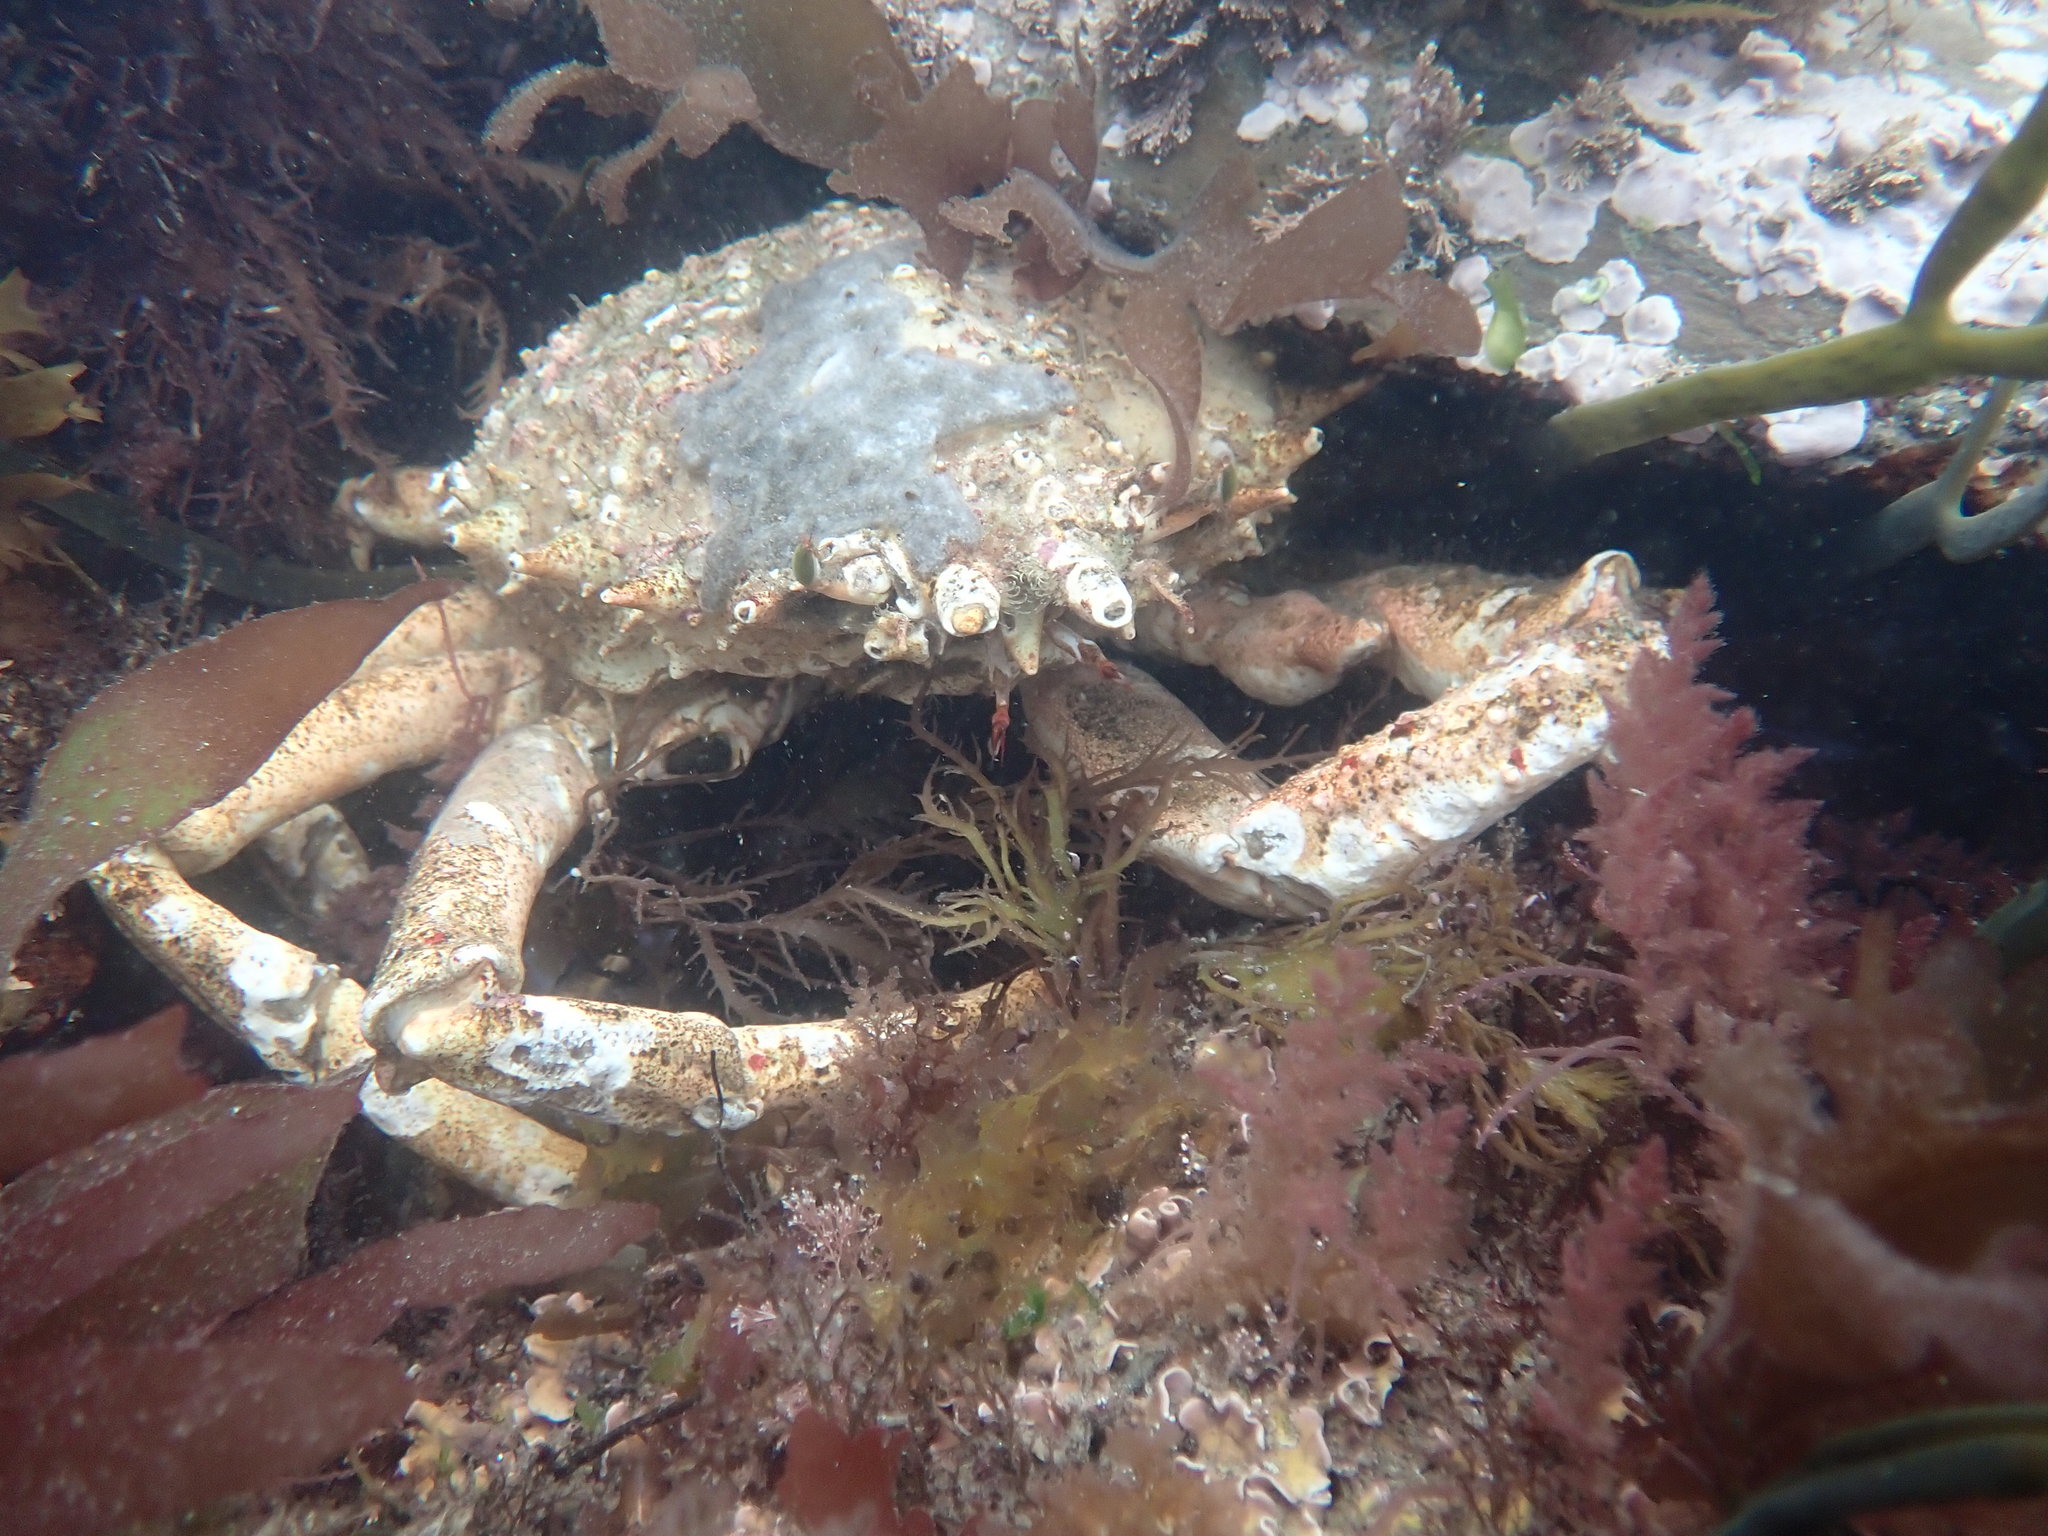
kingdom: Animalia
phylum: Arthropoda
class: Malacostraca
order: Decapoda
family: Majidae
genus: Maja
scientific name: Maja brachydactyla
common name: Common spider crab
